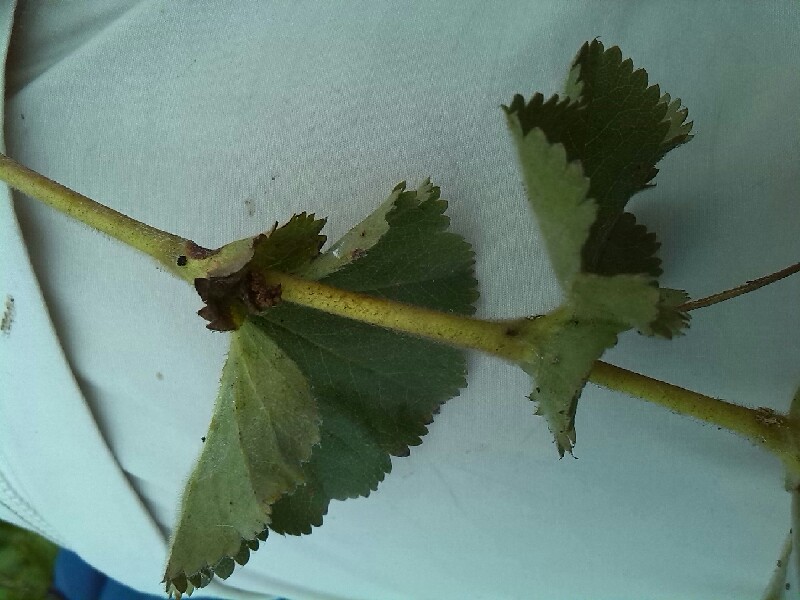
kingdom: Plantae
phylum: Tracheophyta
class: Magnoliopsida
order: Rosales
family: Rosaceae
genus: Alchemilla
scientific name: Alchemilla mollis
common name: Lady's-mantle
